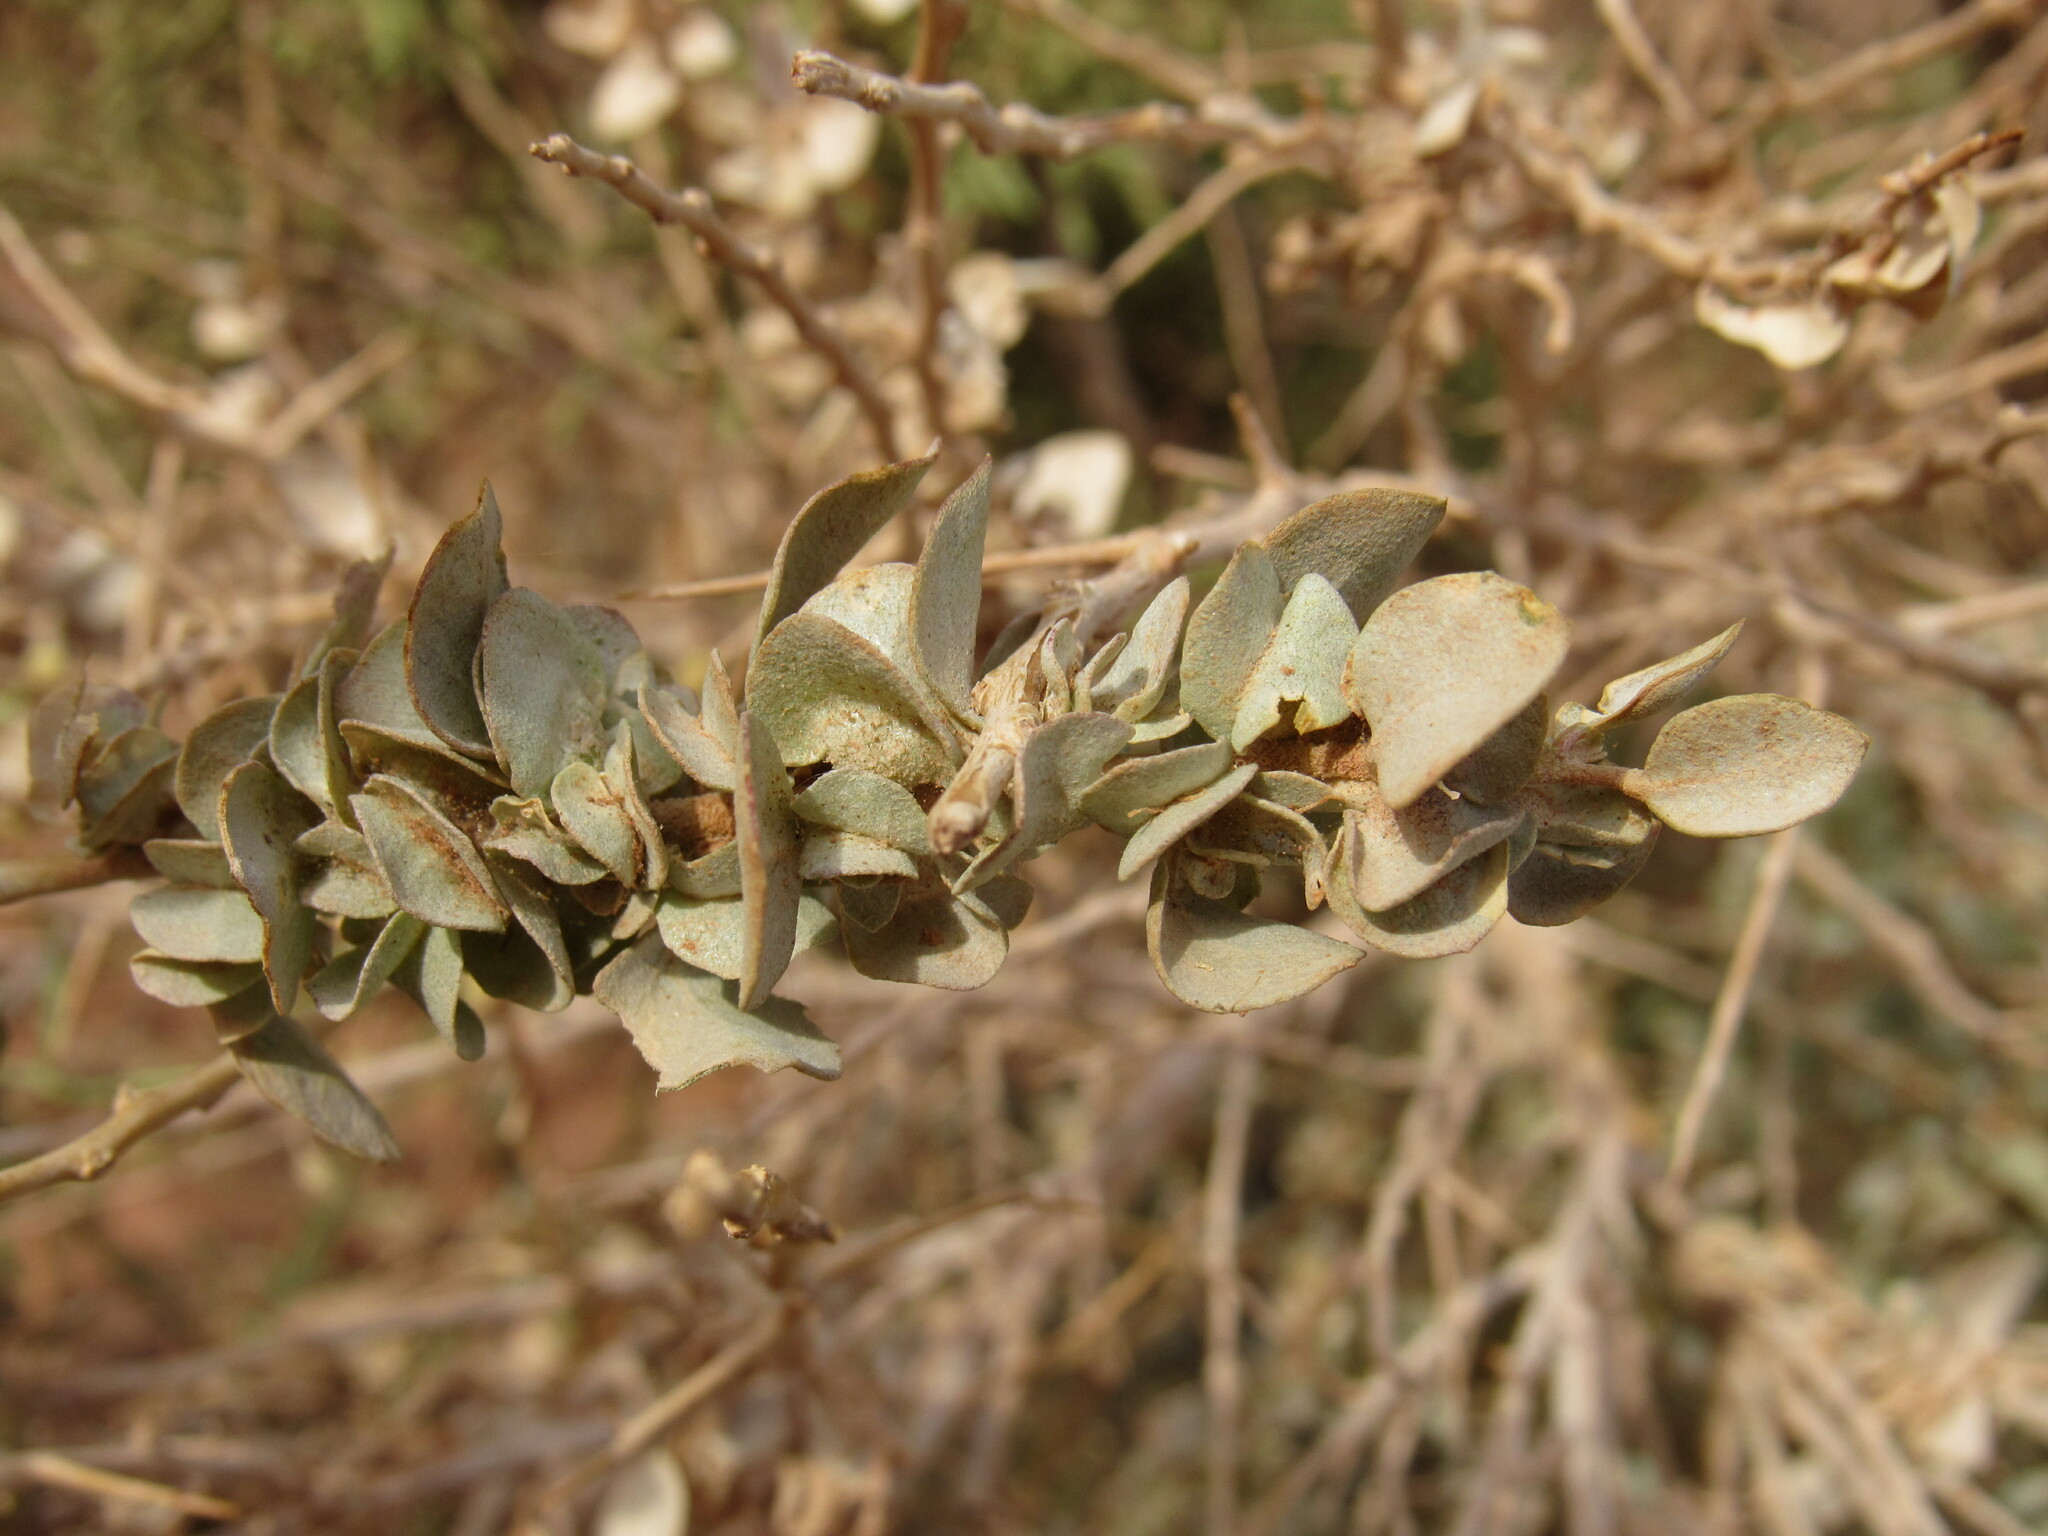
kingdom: Plantae
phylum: Tracheophyta
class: Magnoliopsida
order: Caryophyllales
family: Amaranthaceae
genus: Atriplex
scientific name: Atriplex confertifolia
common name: Shadscale
